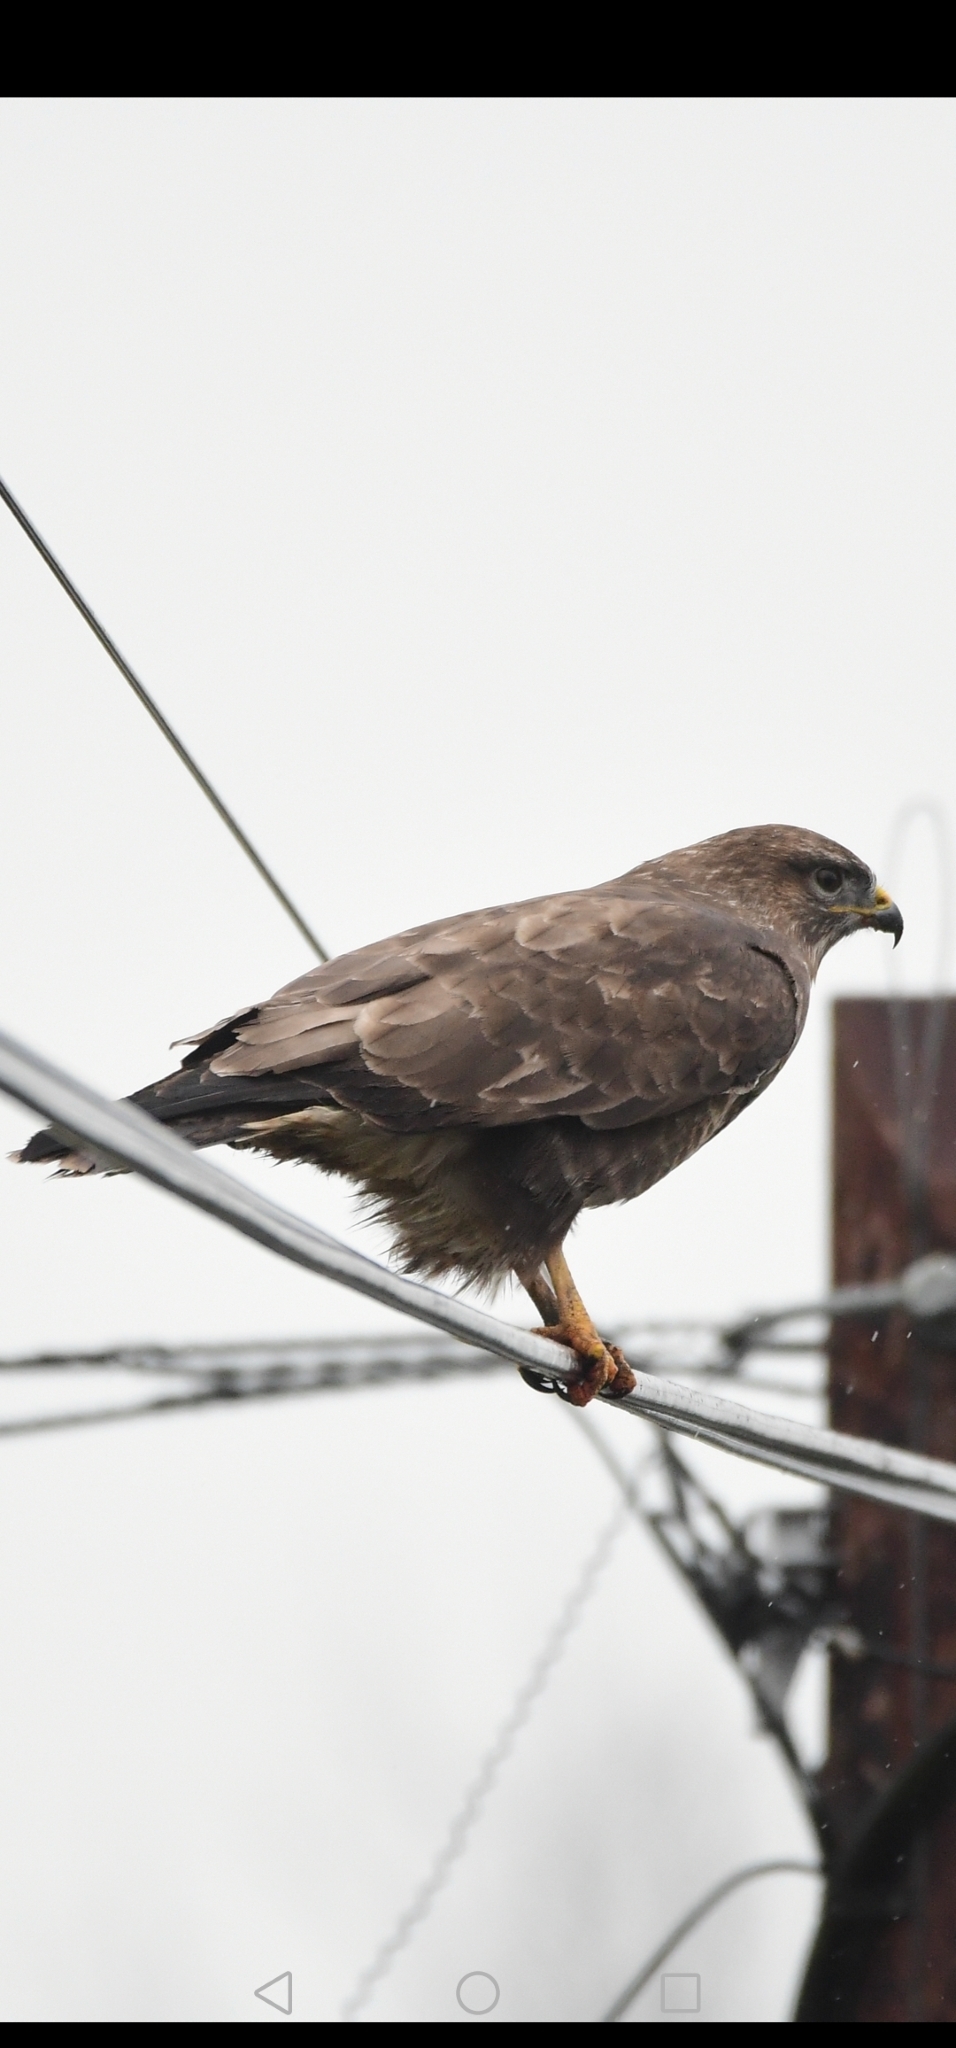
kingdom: Animalia
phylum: Chordata
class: Aves
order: Accipitriformes
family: Accipitridae
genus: Buteo
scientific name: Buteo buteo
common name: Common buzzard
